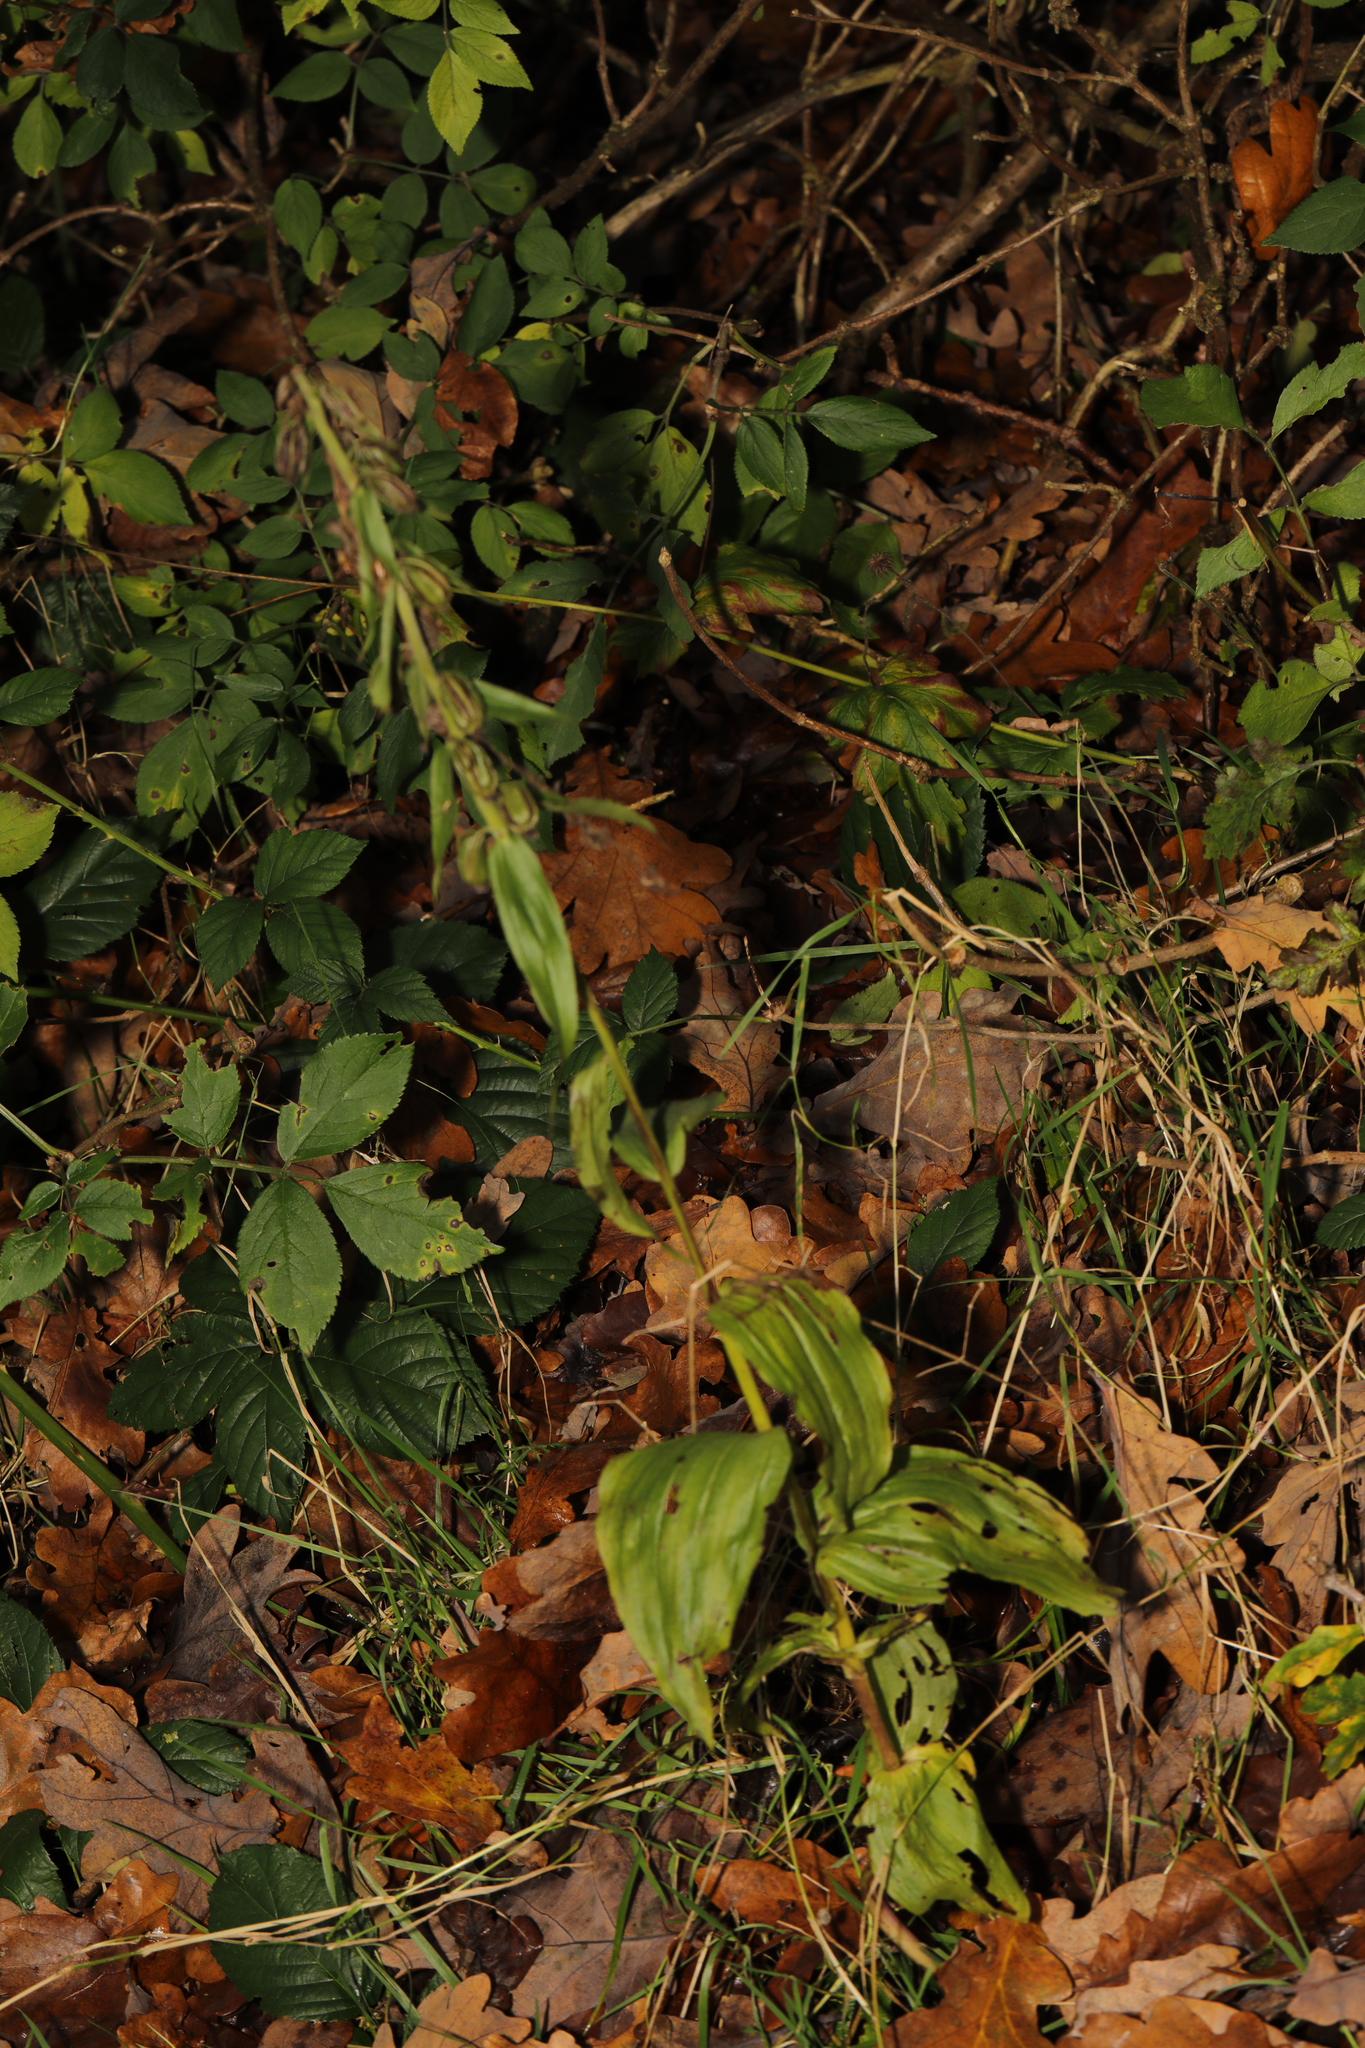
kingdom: Plantae
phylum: Tracheophyta
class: Liliopsida
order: Asparagales
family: Orchidaceae
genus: Epipactis
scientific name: Epipactis helleborine
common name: Broad-leaved helleborine
